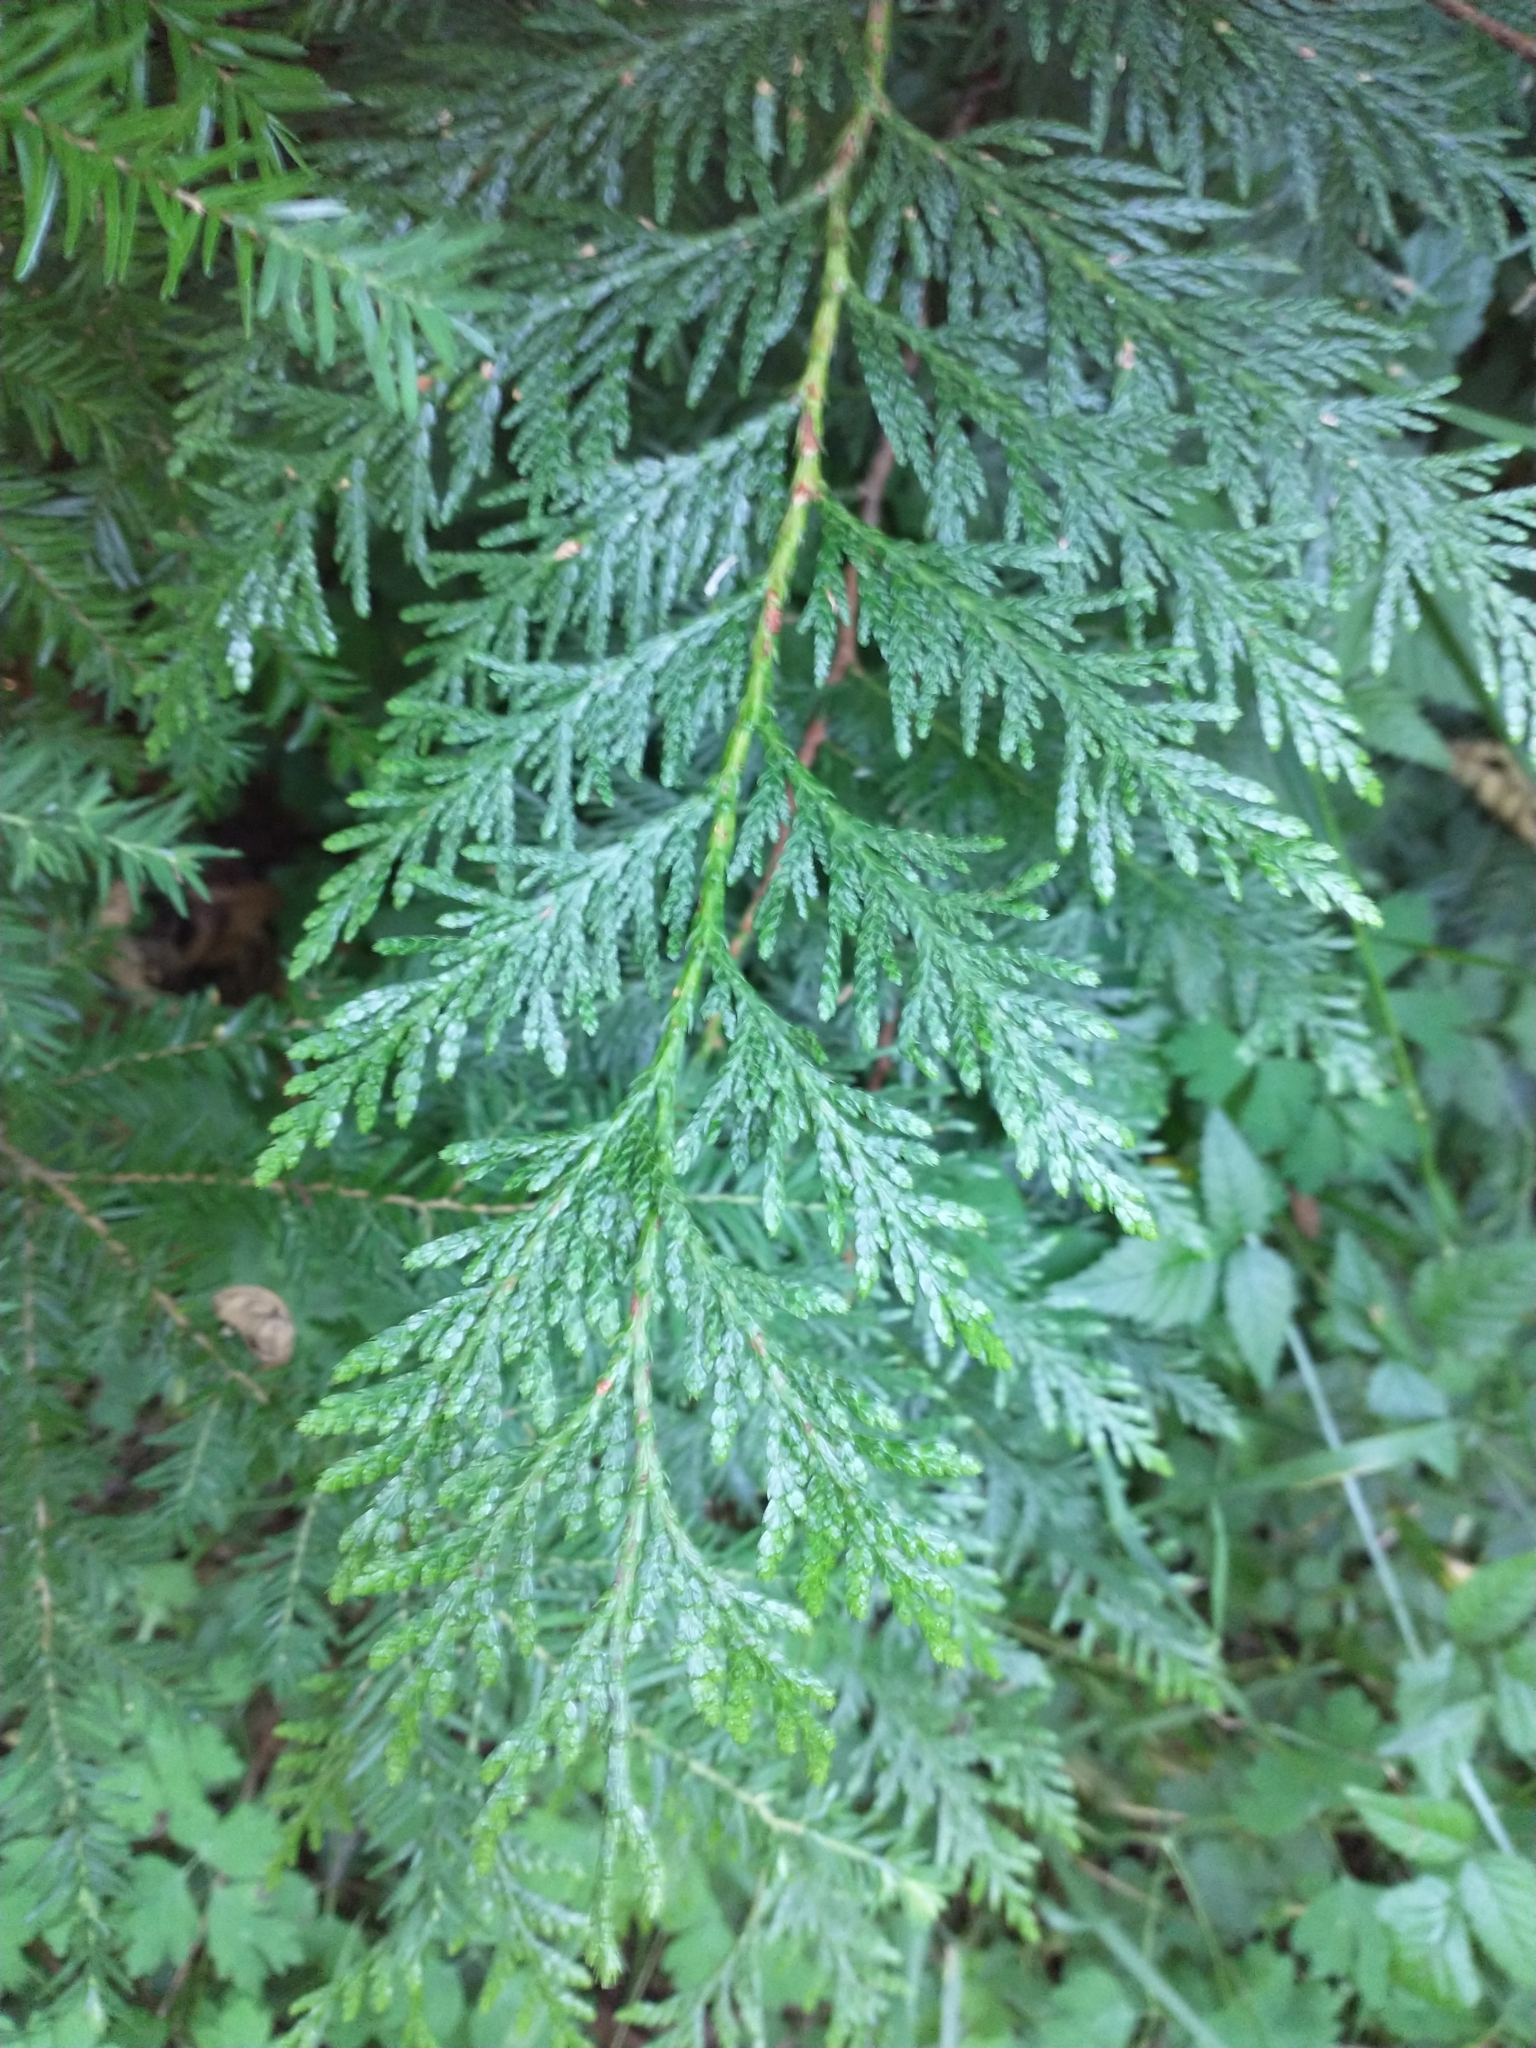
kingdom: Plantae
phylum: Tracheophyta
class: Pinopsida
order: Pinales
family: Cupressaceae
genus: Thuja
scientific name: Thuja plicata
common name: Western red-cedar
